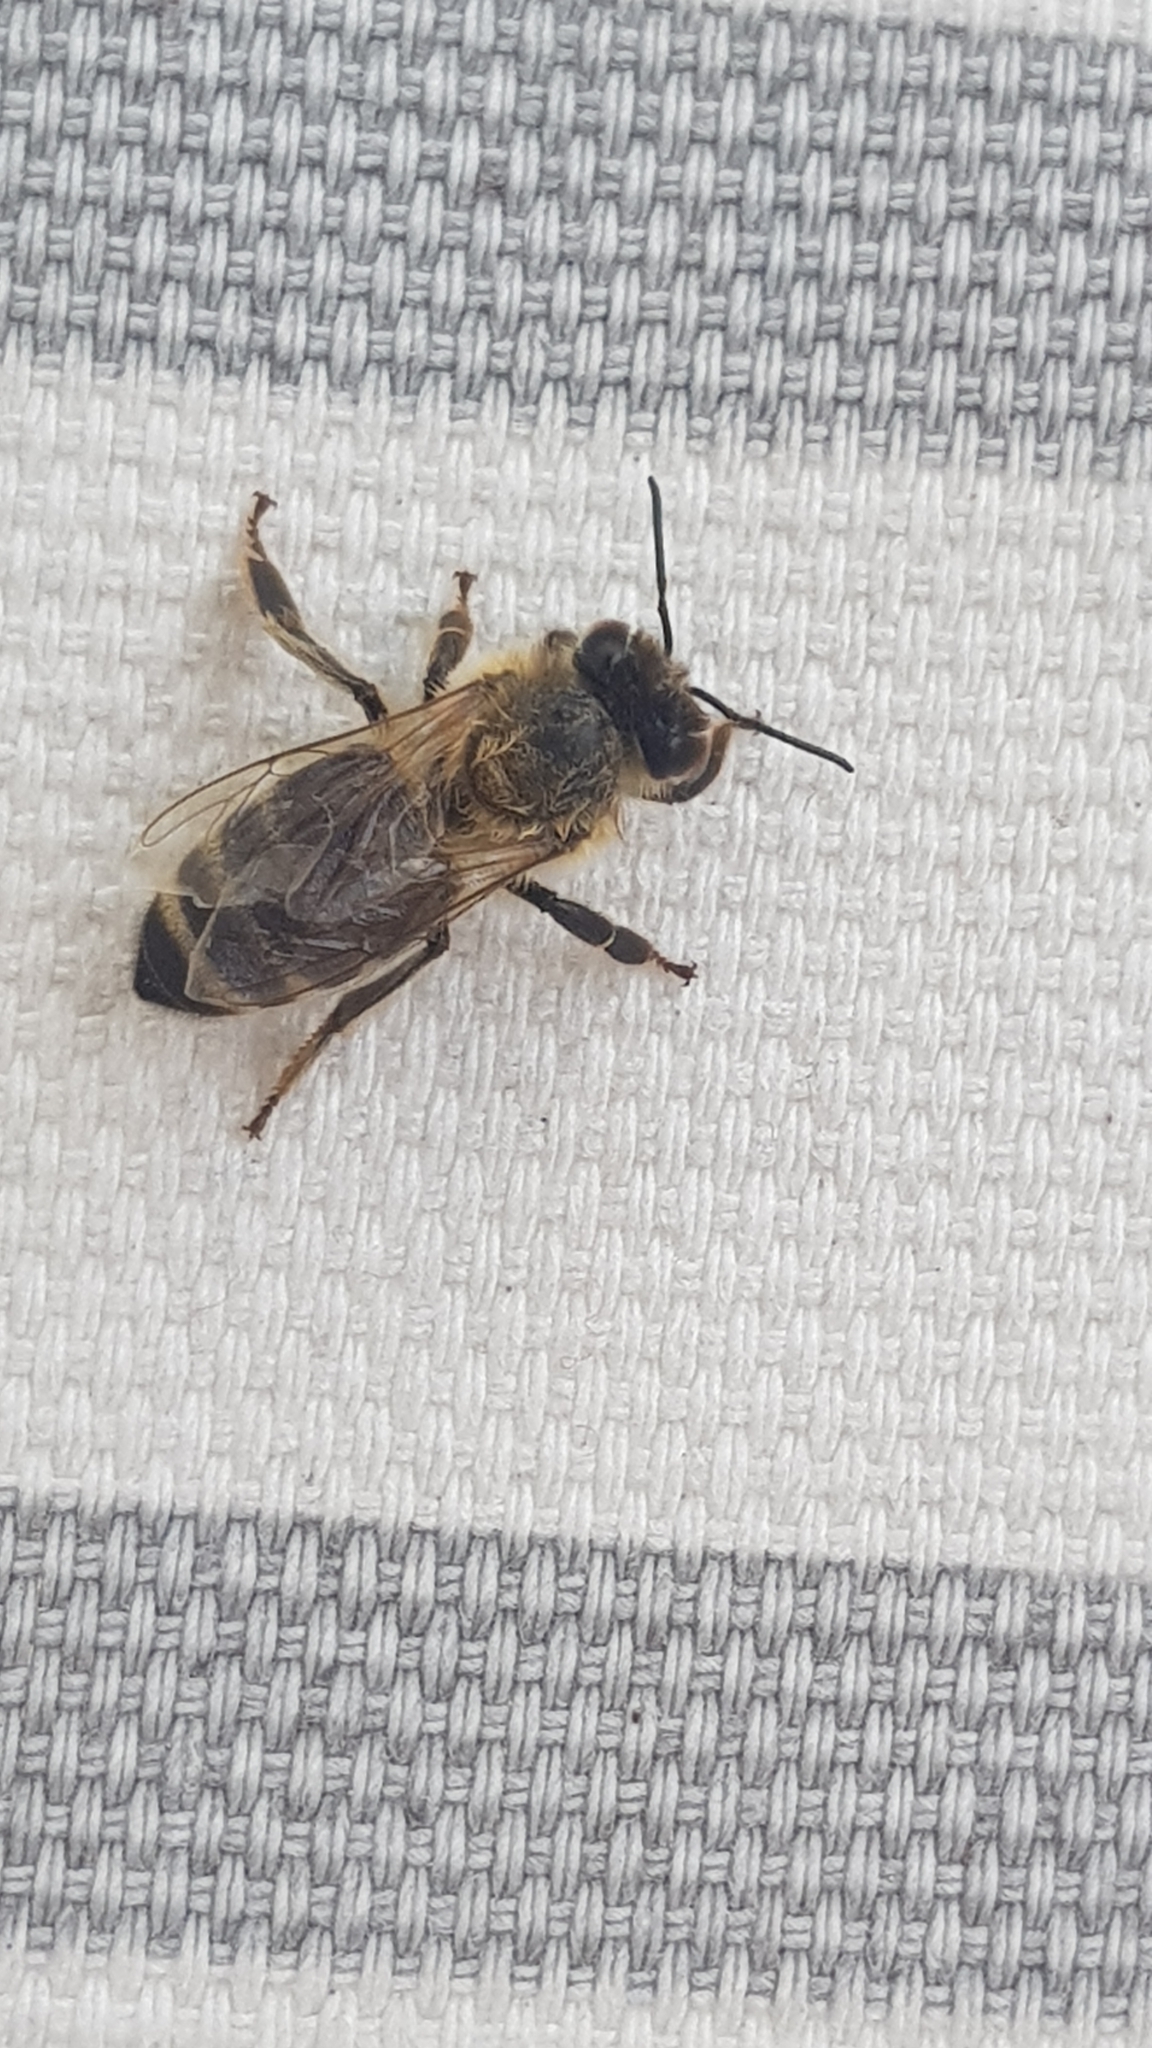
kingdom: Animalia
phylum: Arthropoda
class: Insecta
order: Hymenoptera
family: Apidae
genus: Apis
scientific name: Apis mellifera
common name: Honey bee
